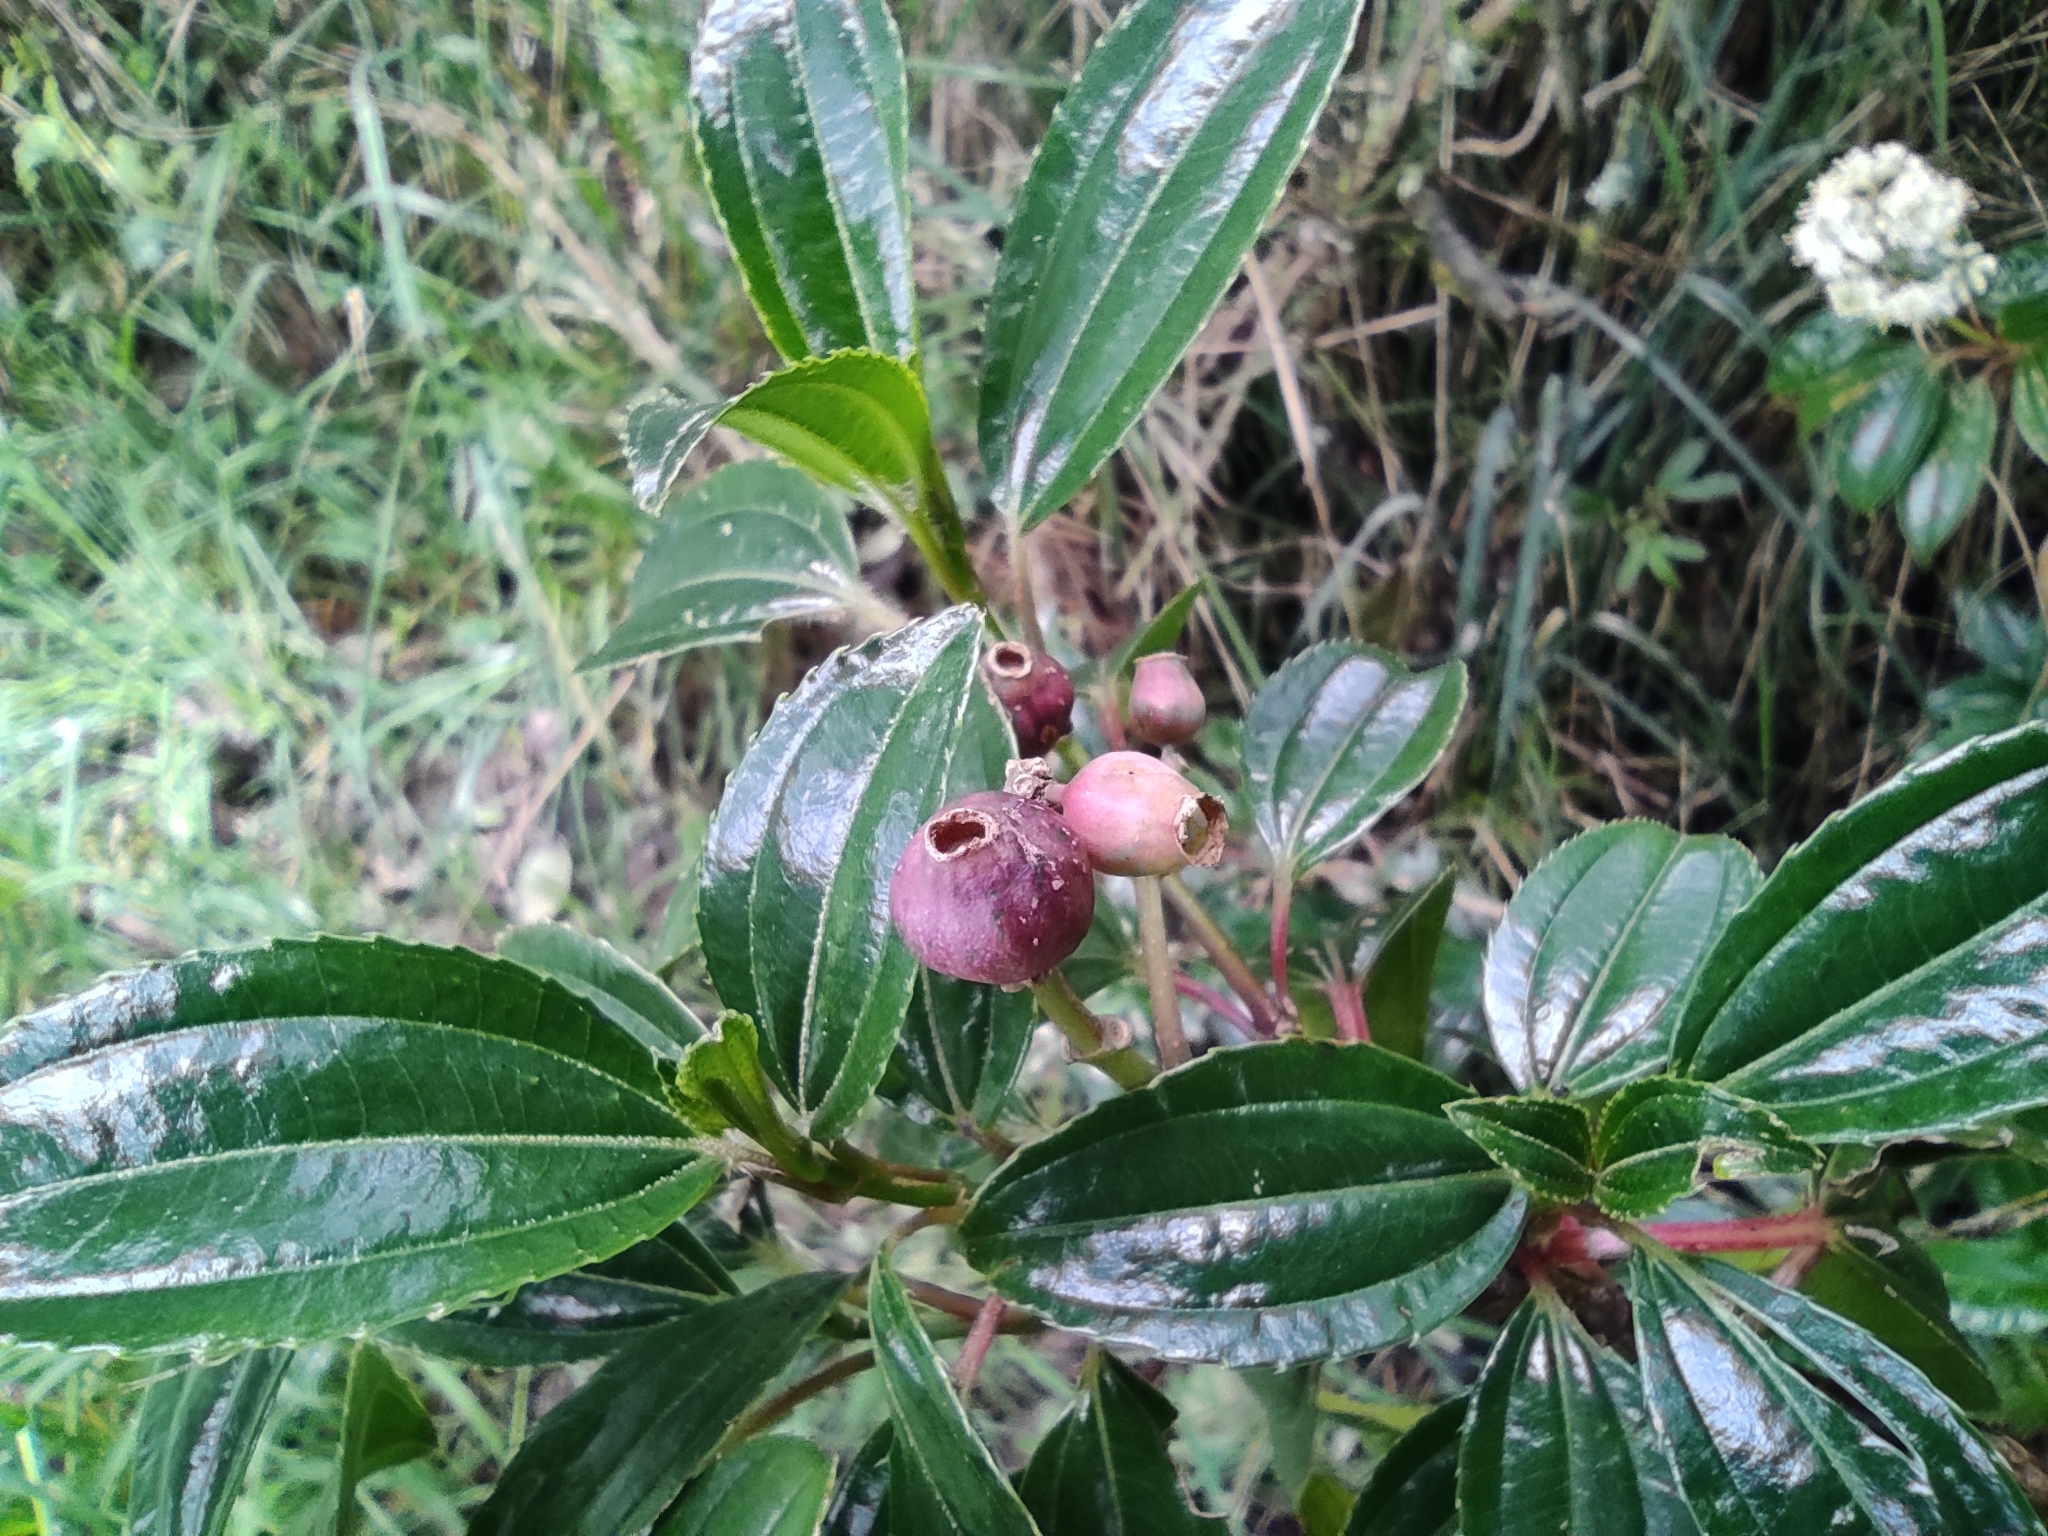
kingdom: Plantae
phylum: Tracheophyta
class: Magnoliopsida
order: Myrtales
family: Melastomataceae
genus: Miconia
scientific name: Miconia crocea
